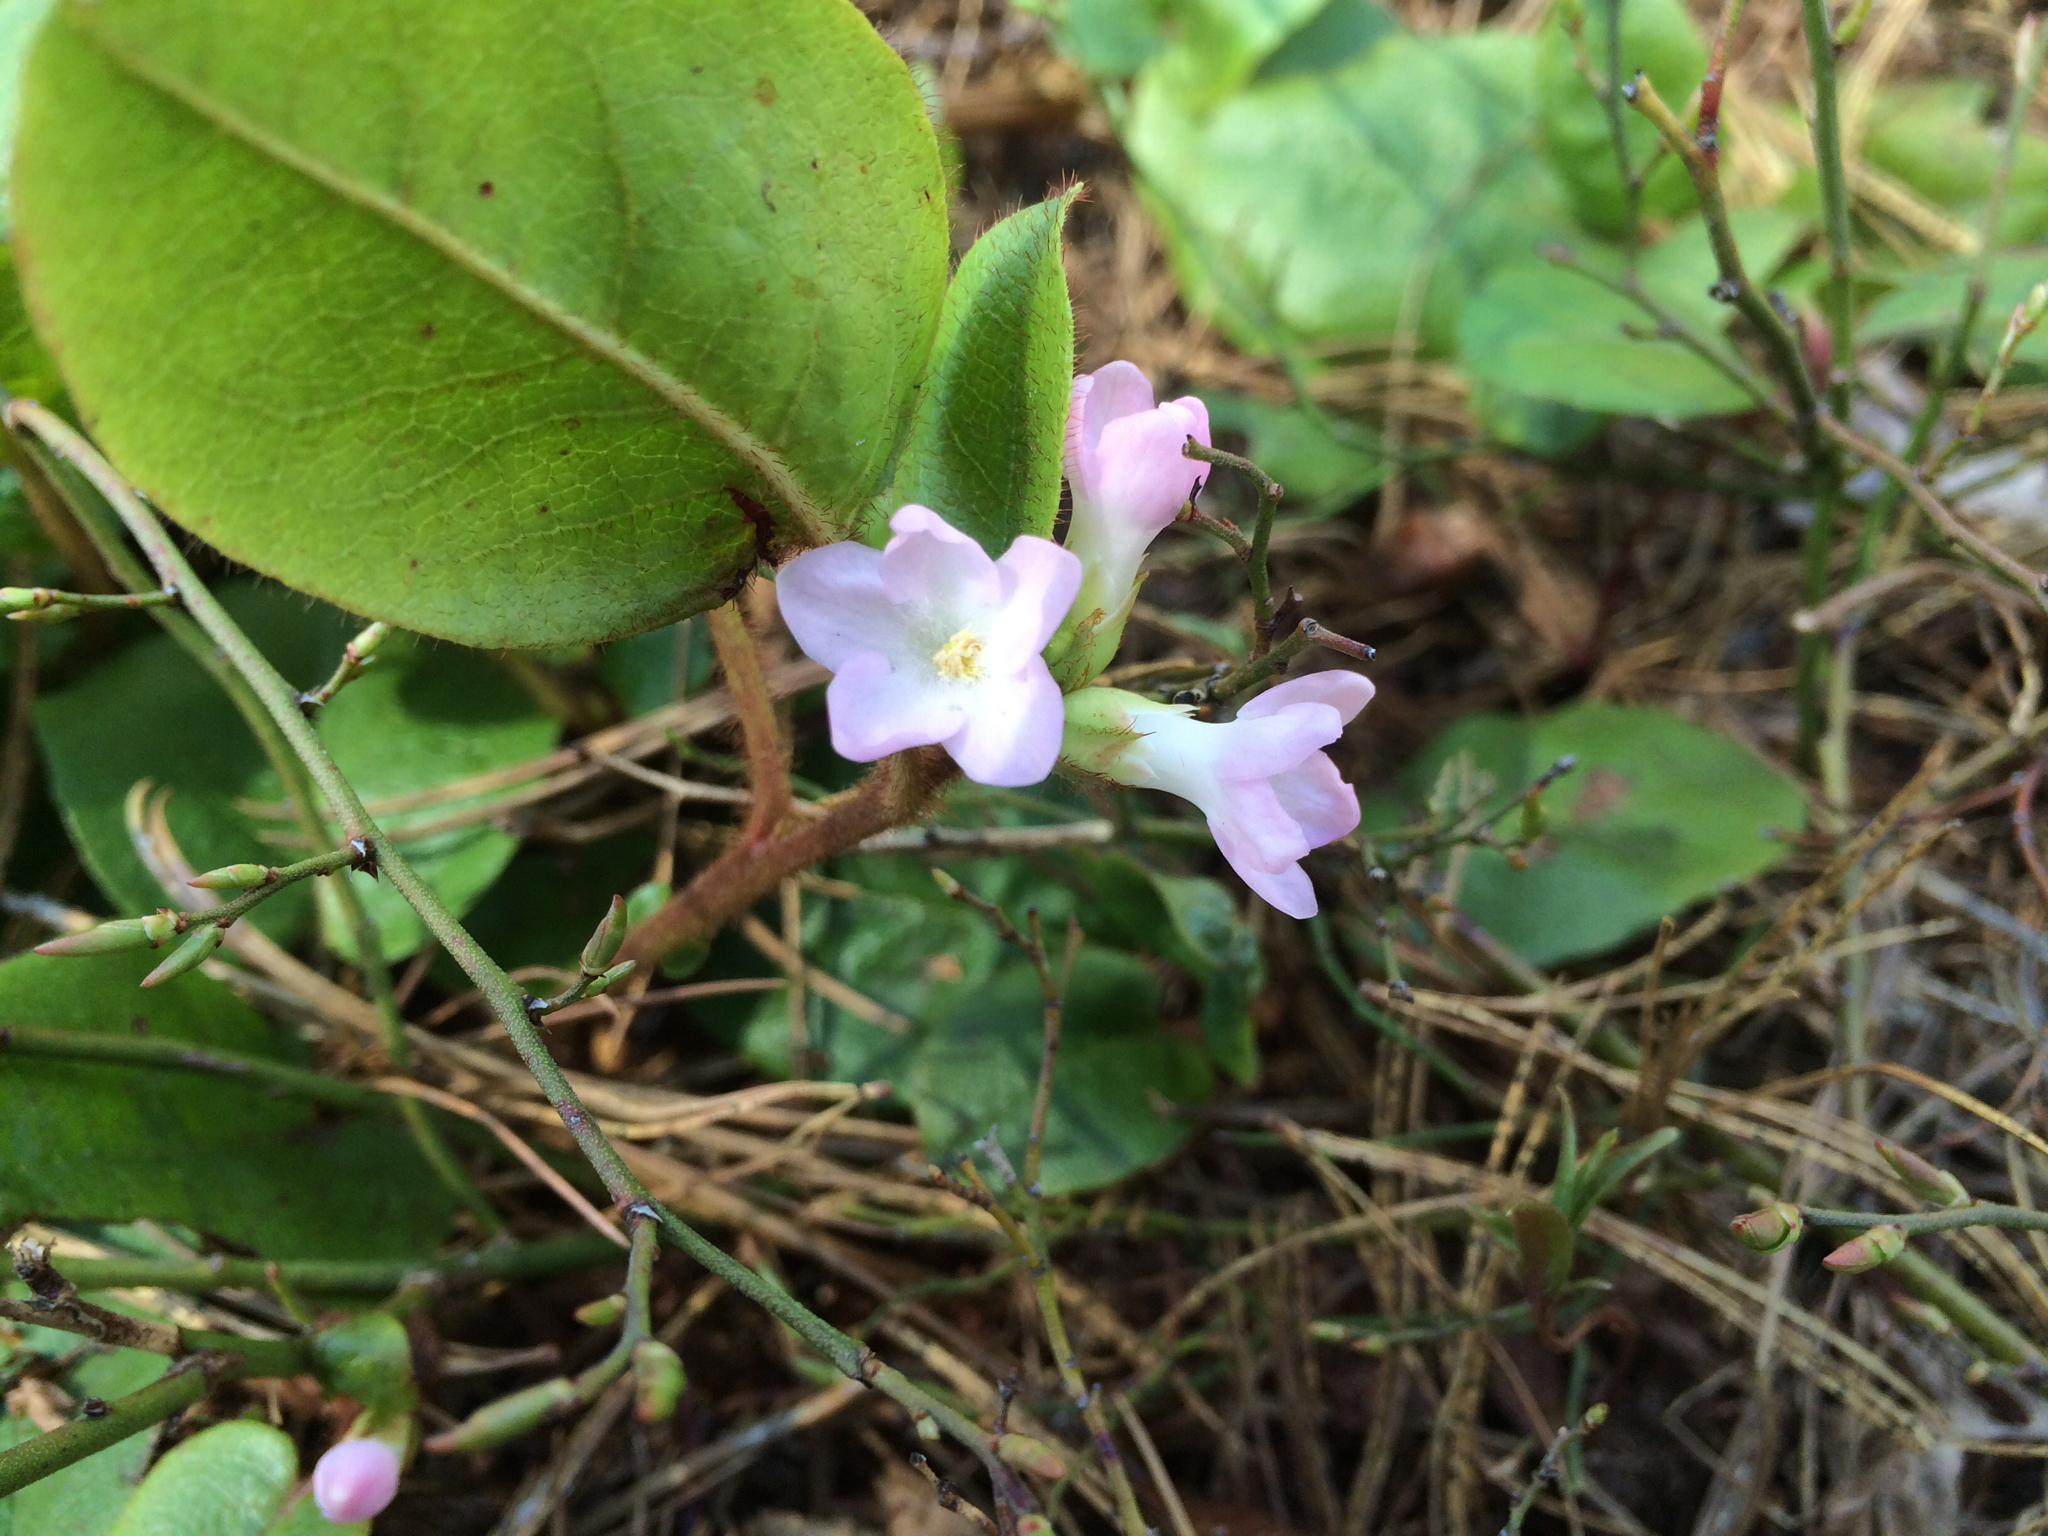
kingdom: Plantae
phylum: Tracheophyta
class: Magnoliopsida
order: Ericales
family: Ericaceae
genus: Epigaea
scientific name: Epigaea repens
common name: Gravelroot
